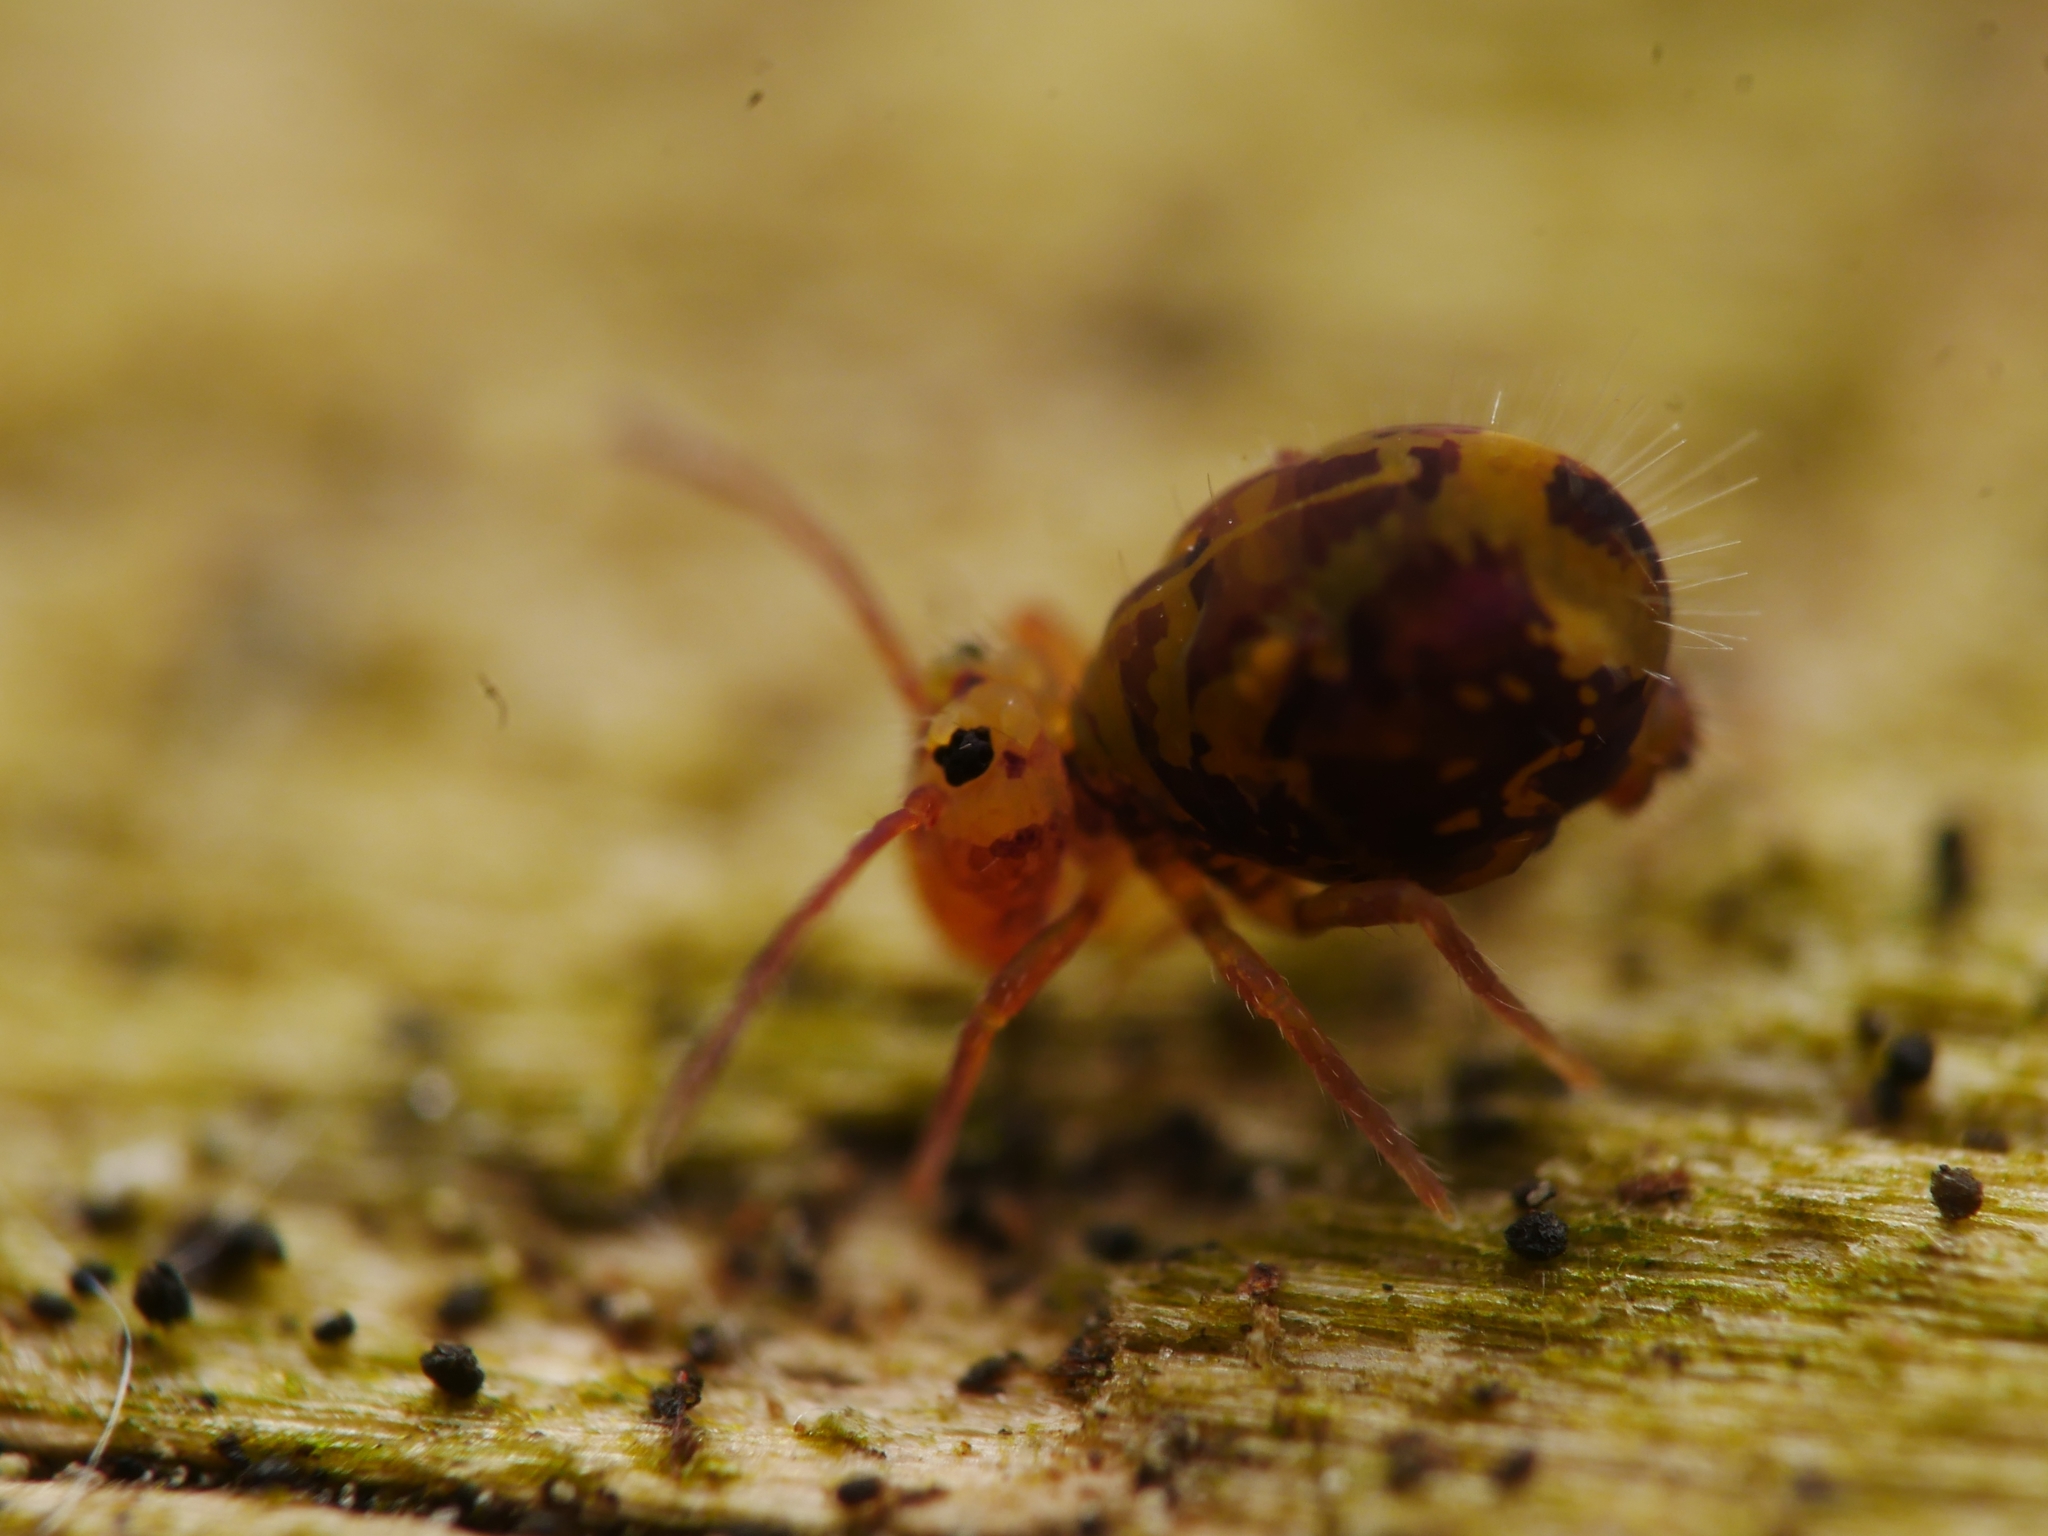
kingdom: Animalia
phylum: Arthropoda
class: Collembola
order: Symphypleona
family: Dicyrtomidae
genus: Dicyrtomina
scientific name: Dicyrtomina ornata
